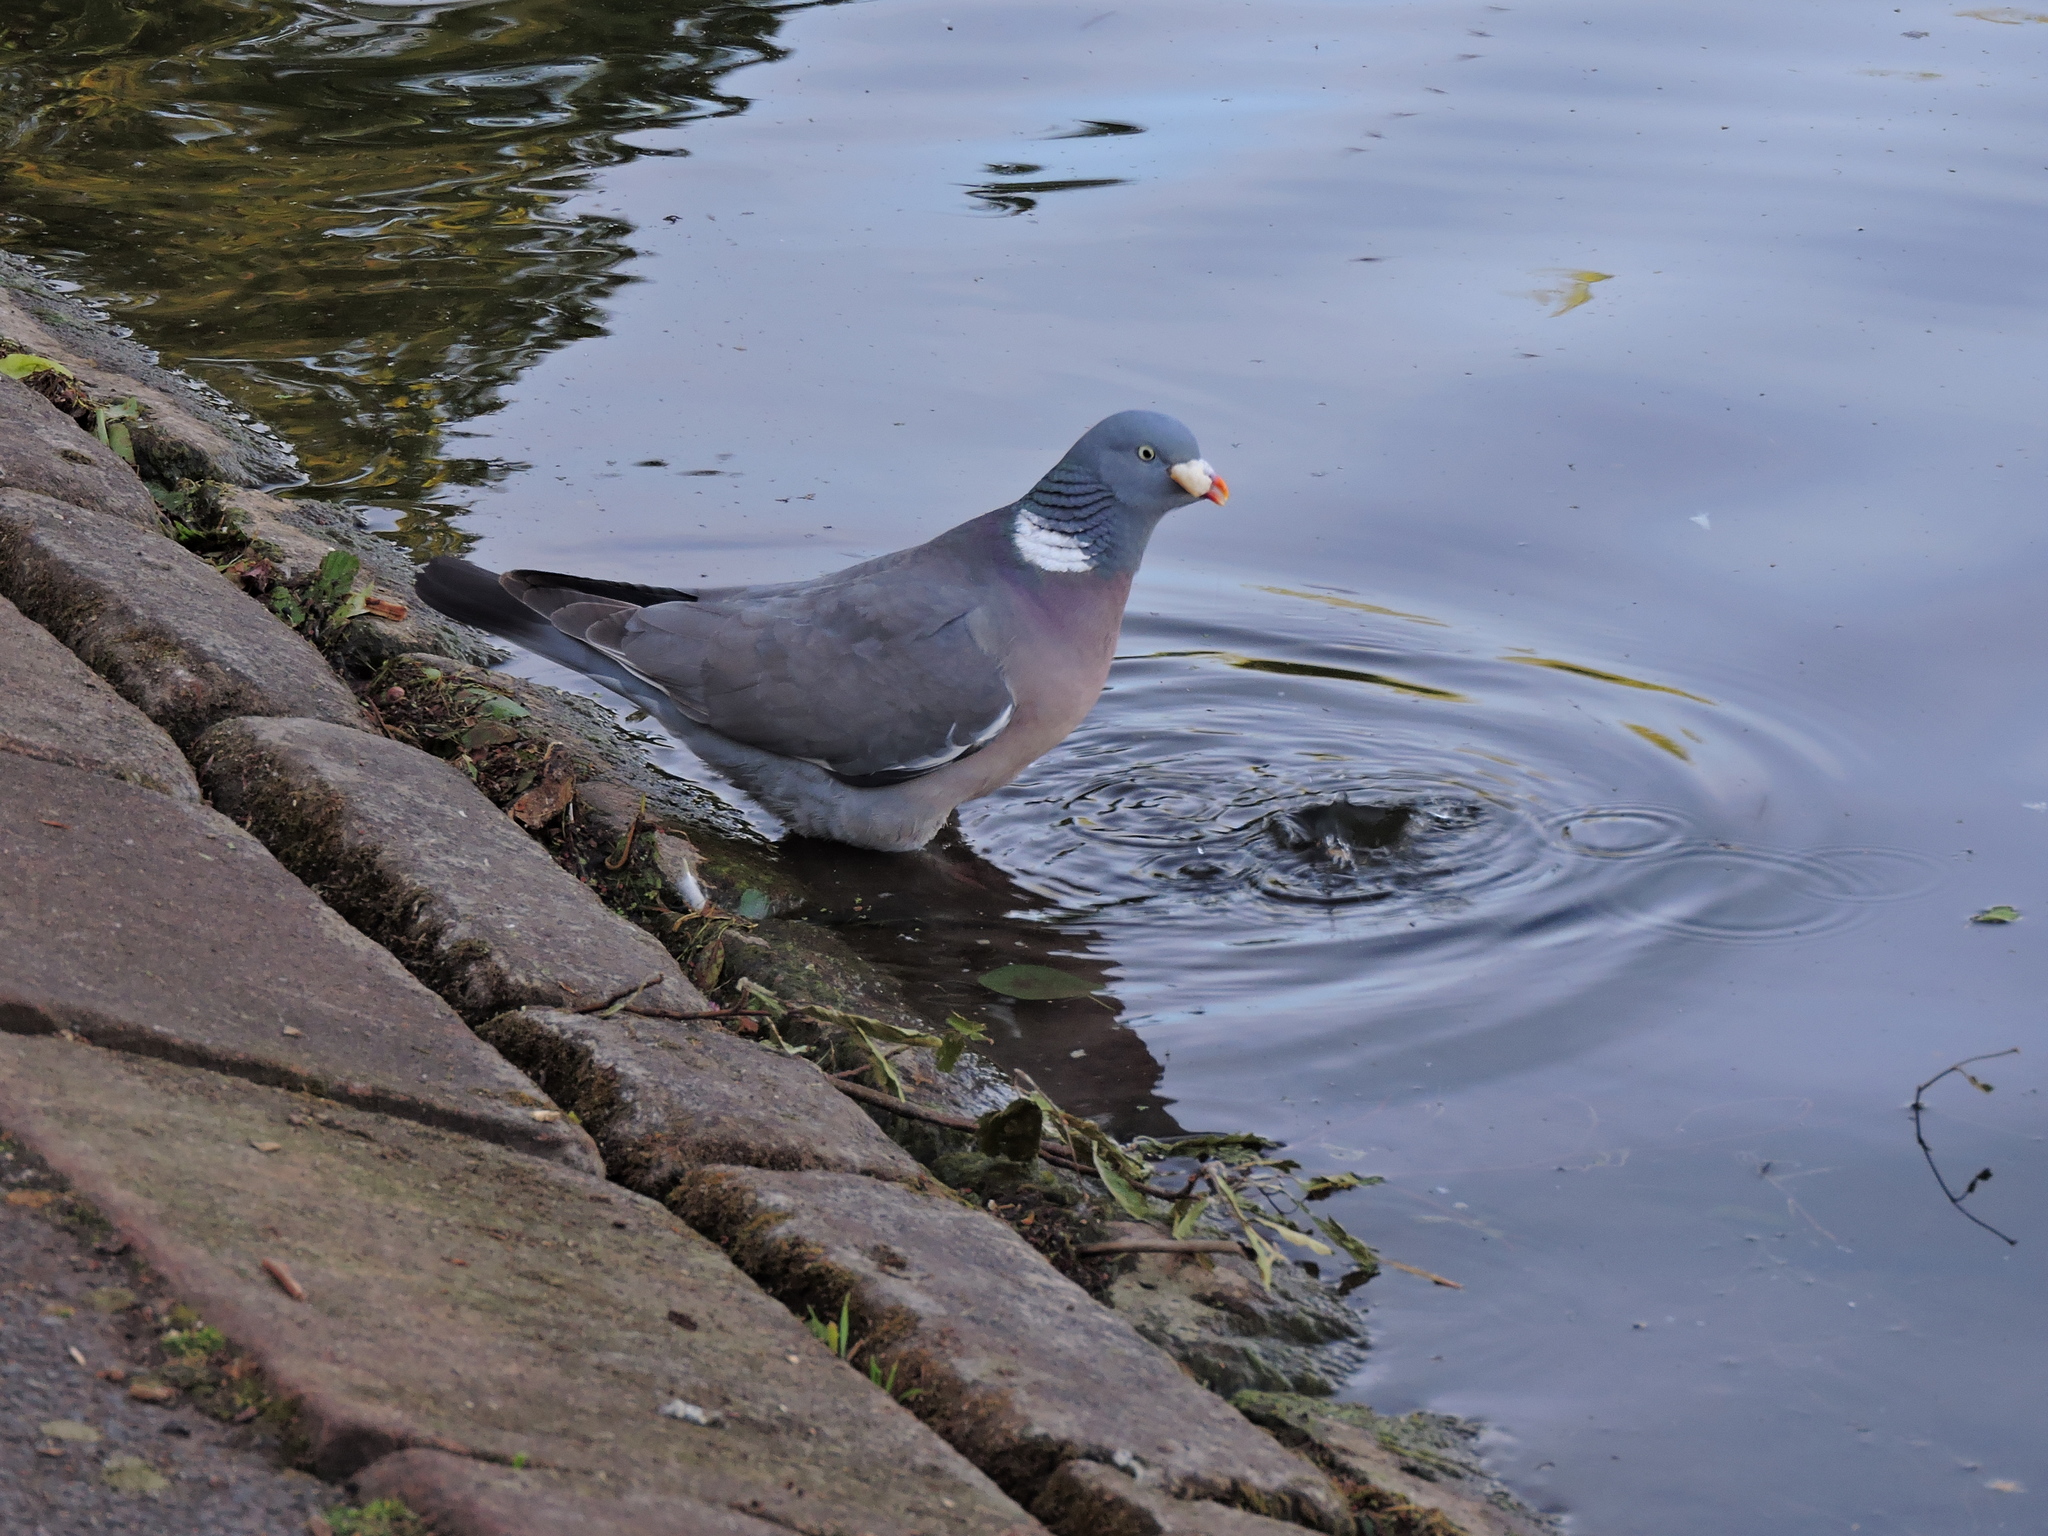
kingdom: Animalia
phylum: Chordata
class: Aves
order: Columbiformes
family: Columbidae
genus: Columba
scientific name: Columba palumbus
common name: Common wood pigeon
